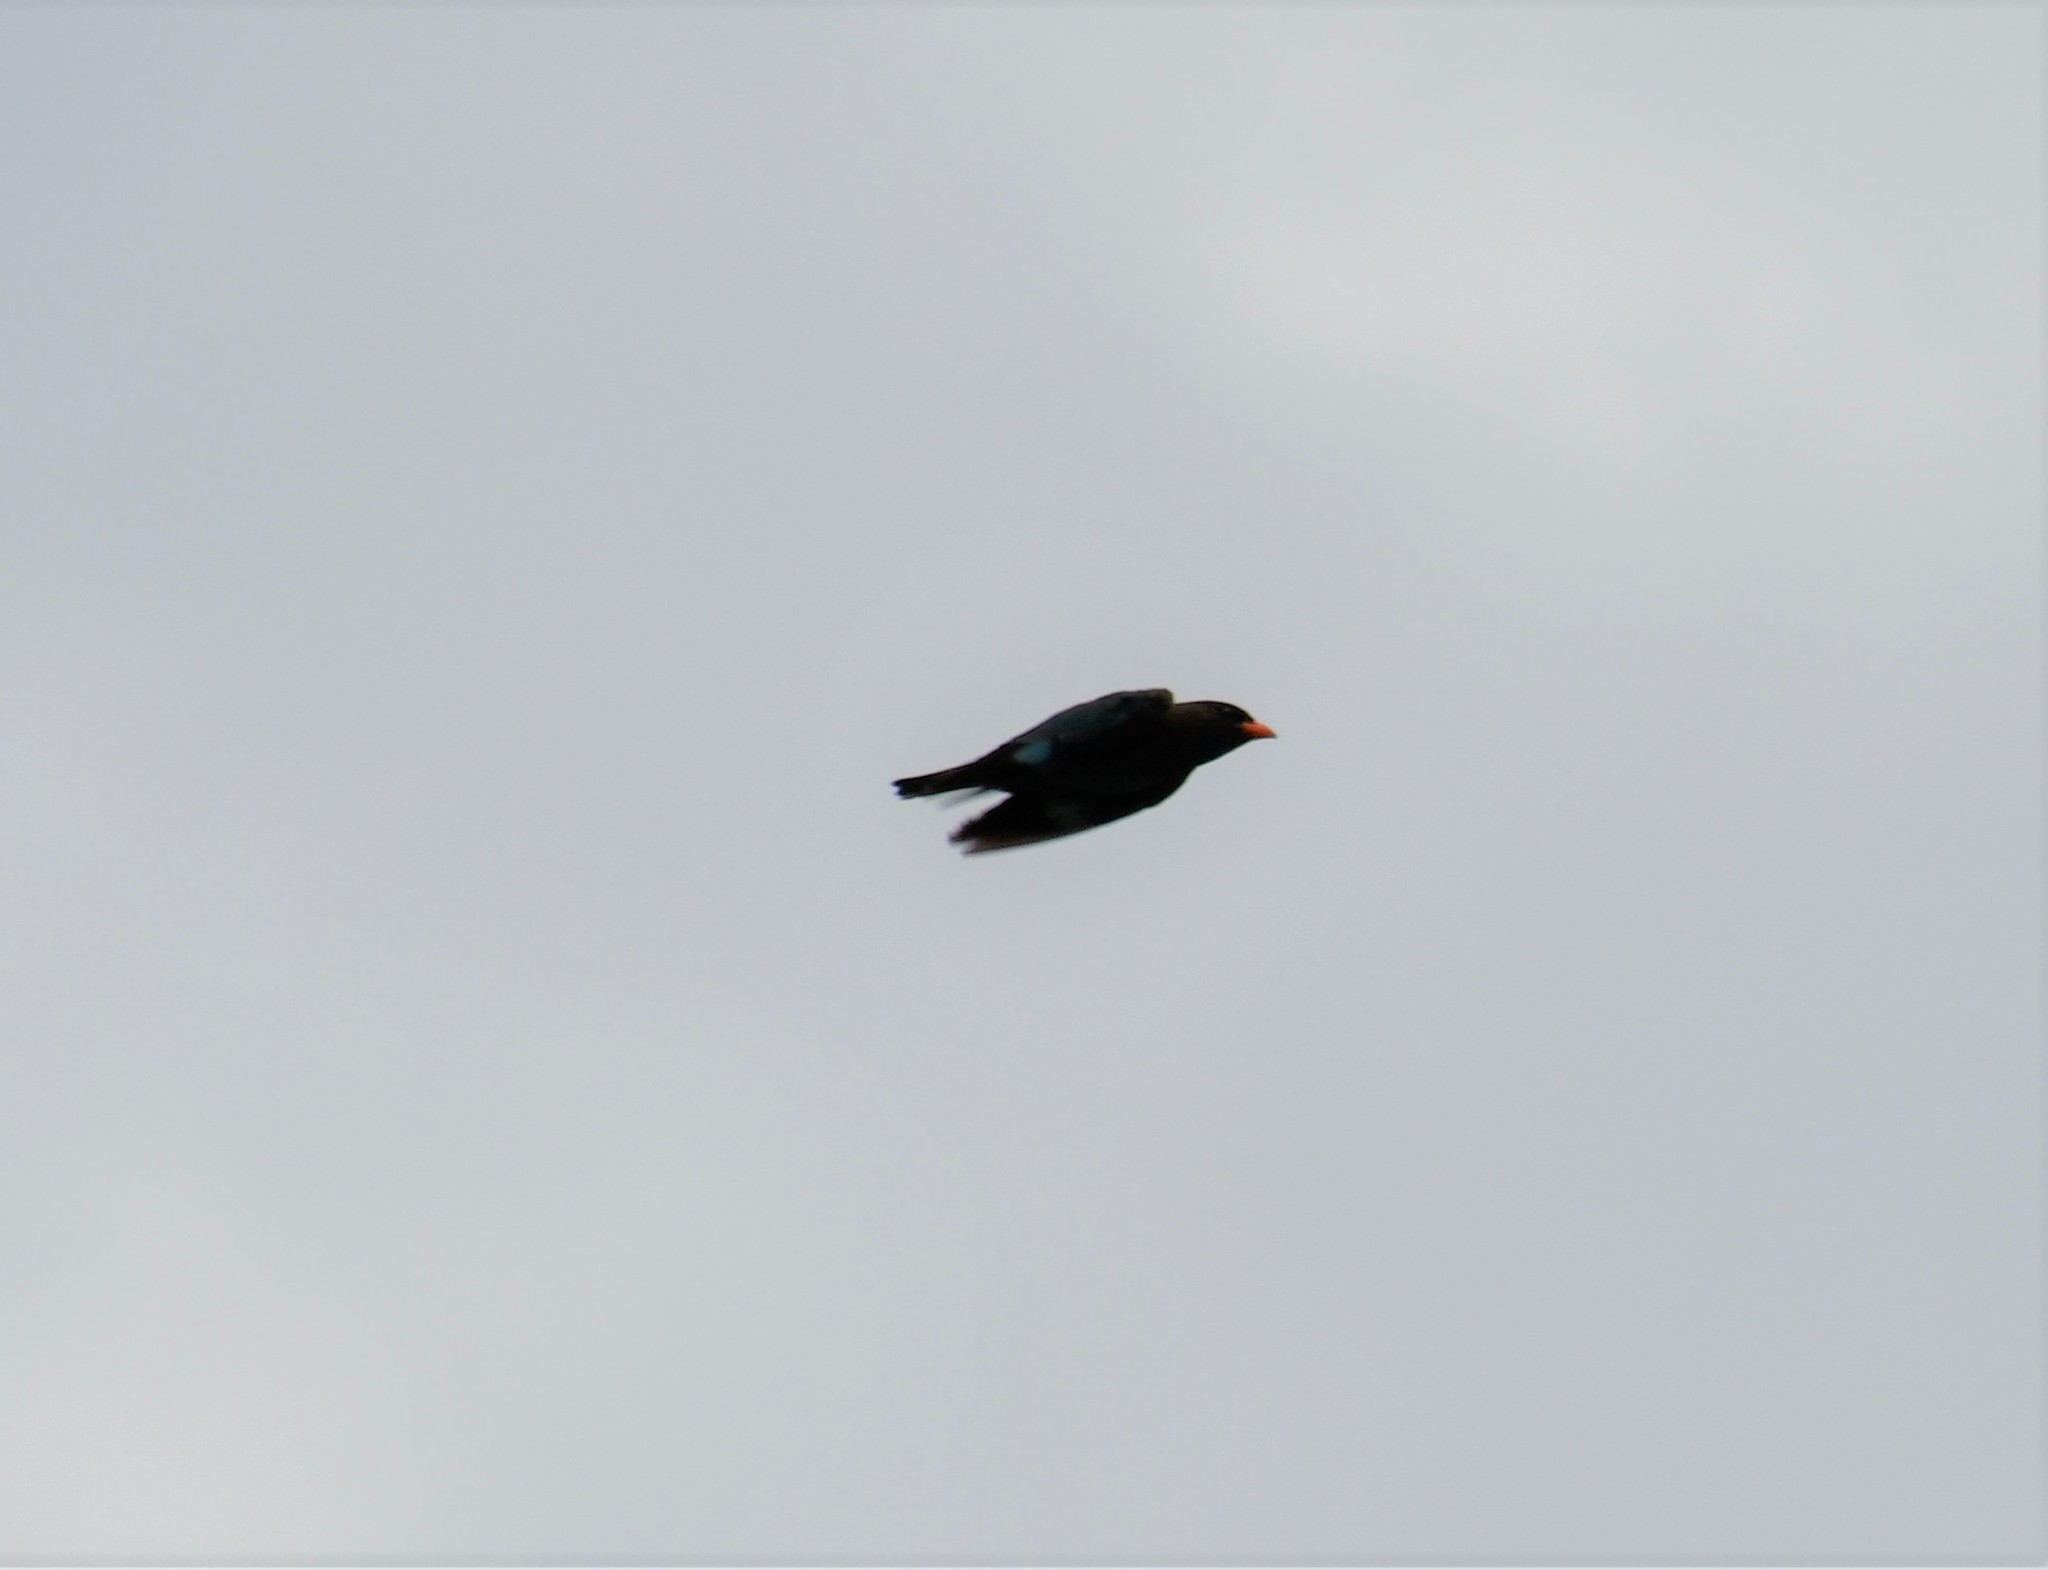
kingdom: Animalia
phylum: Chordata
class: Aves
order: Coraciiformes
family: Coraciidae
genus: Eurystomus
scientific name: Eurystomus orientalis
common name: Oriental dollarbird
